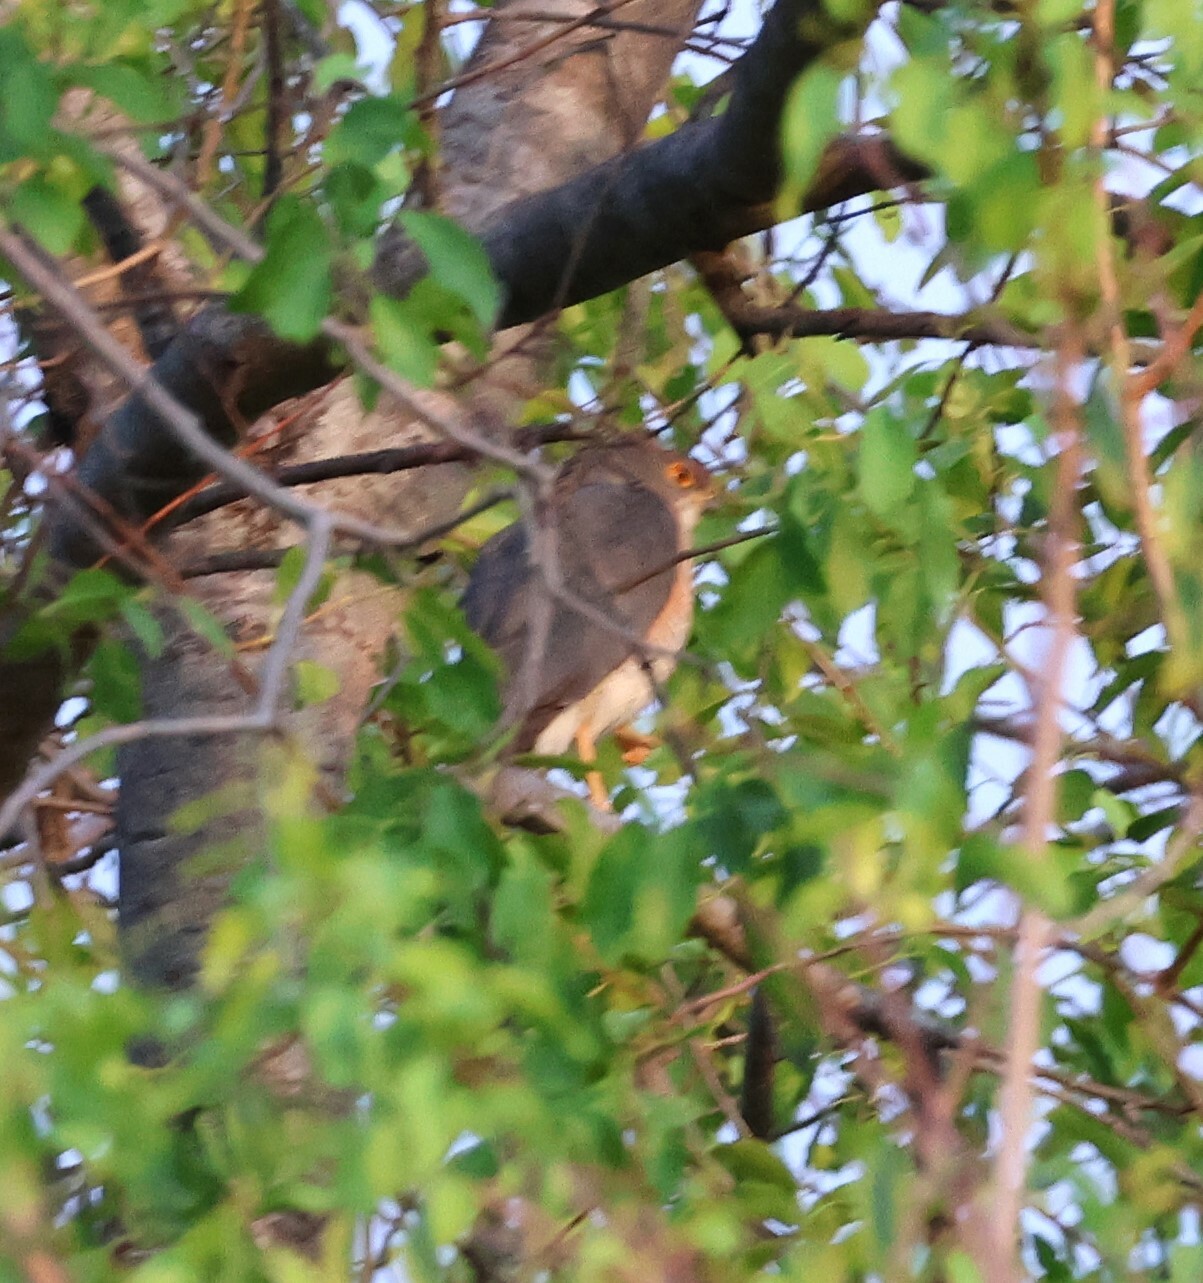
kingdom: Animalia
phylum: Chordata
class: Aves
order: Accipitriformes
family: Accipitridae
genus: Accipiter
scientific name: Accipiter minullus
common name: Little sparrowhawk
